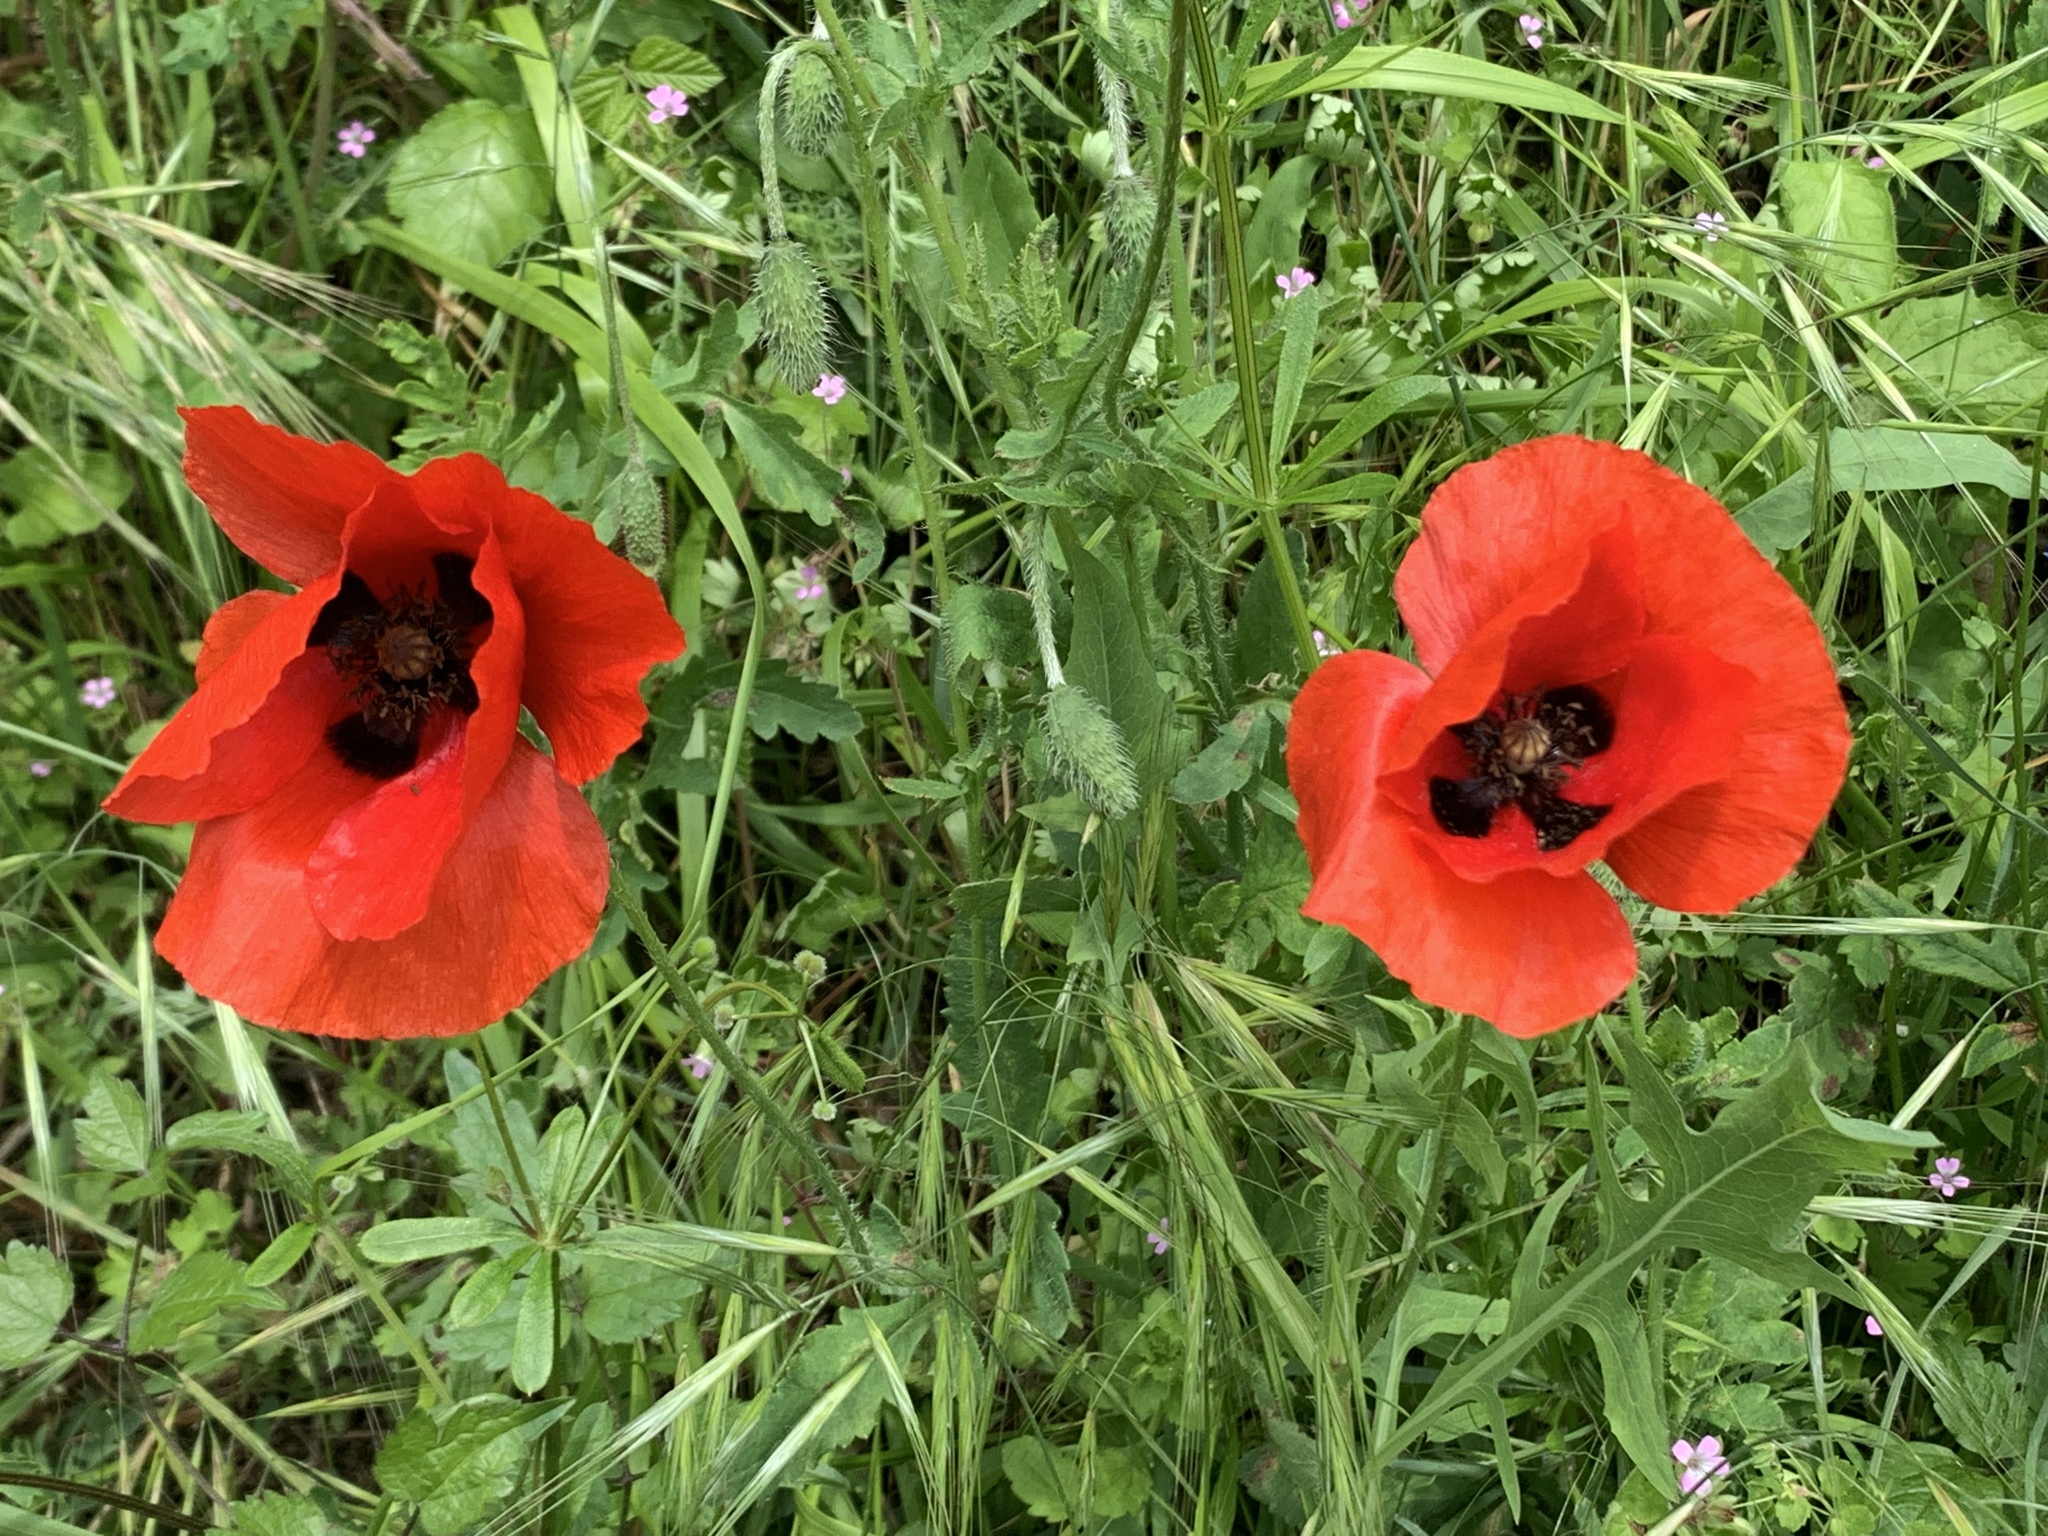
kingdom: Plantae
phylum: Tracheophyta
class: Magnoliopsida
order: Ranunculales
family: Papaveraceae
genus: Papaver
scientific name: Papaver rhoeas
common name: Corn poppy
